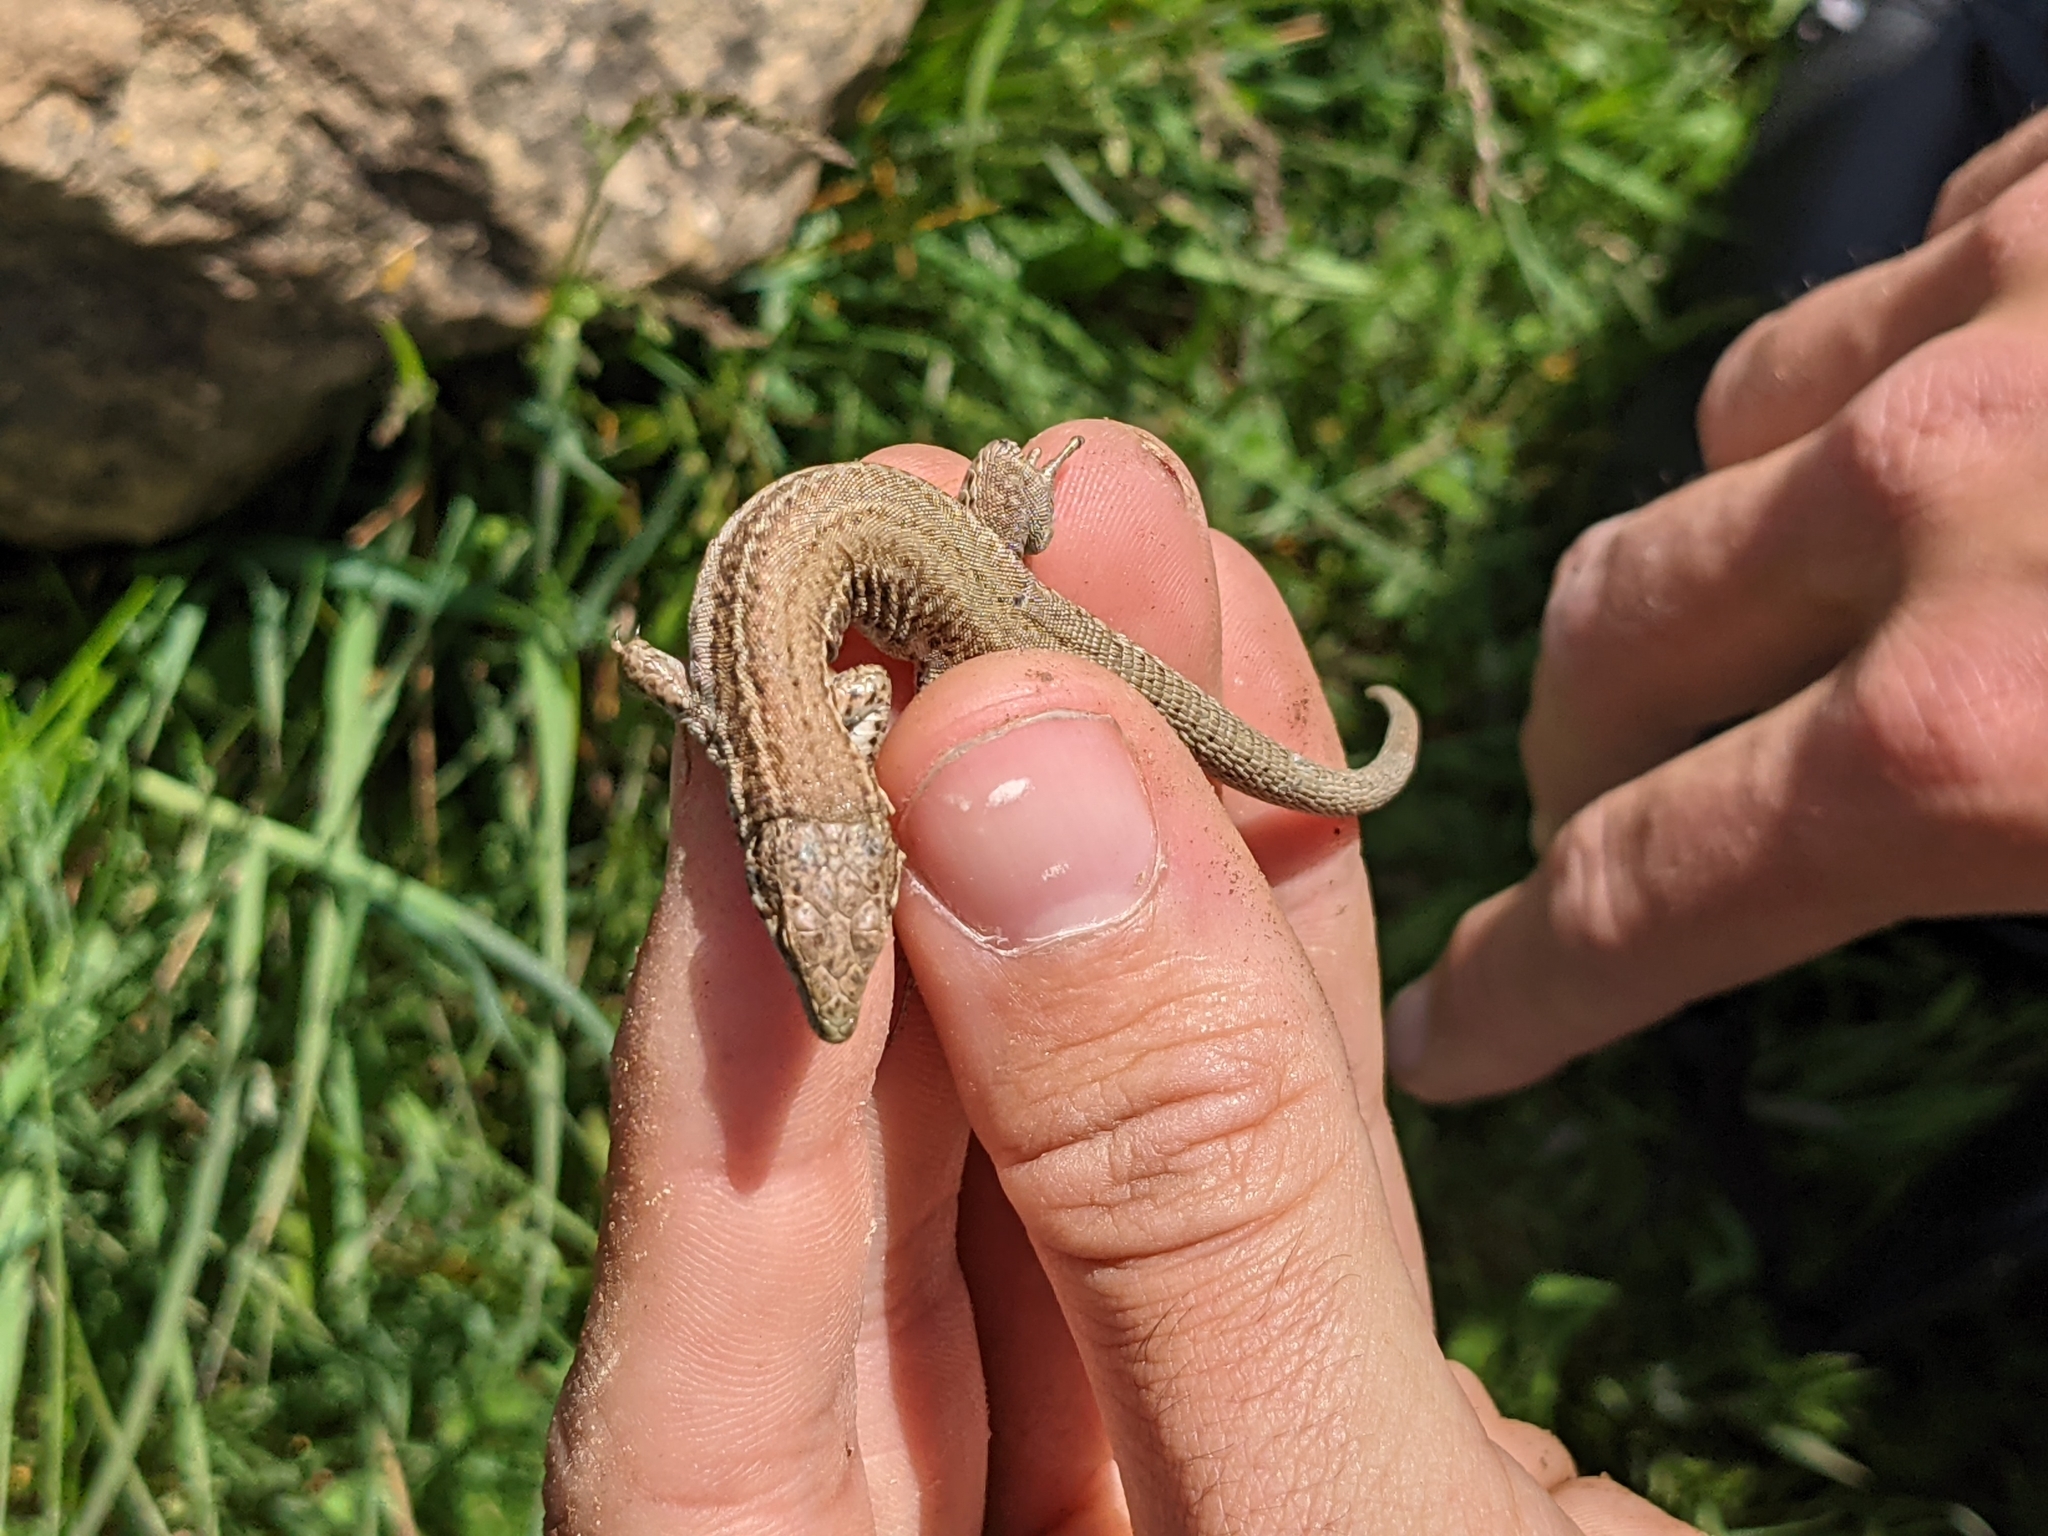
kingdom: Animalia
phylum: Chordata
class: Squamata
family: Lacertidae
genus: Podarcis
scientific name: Podarcis liolepis
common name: Catalonian wall lizard
